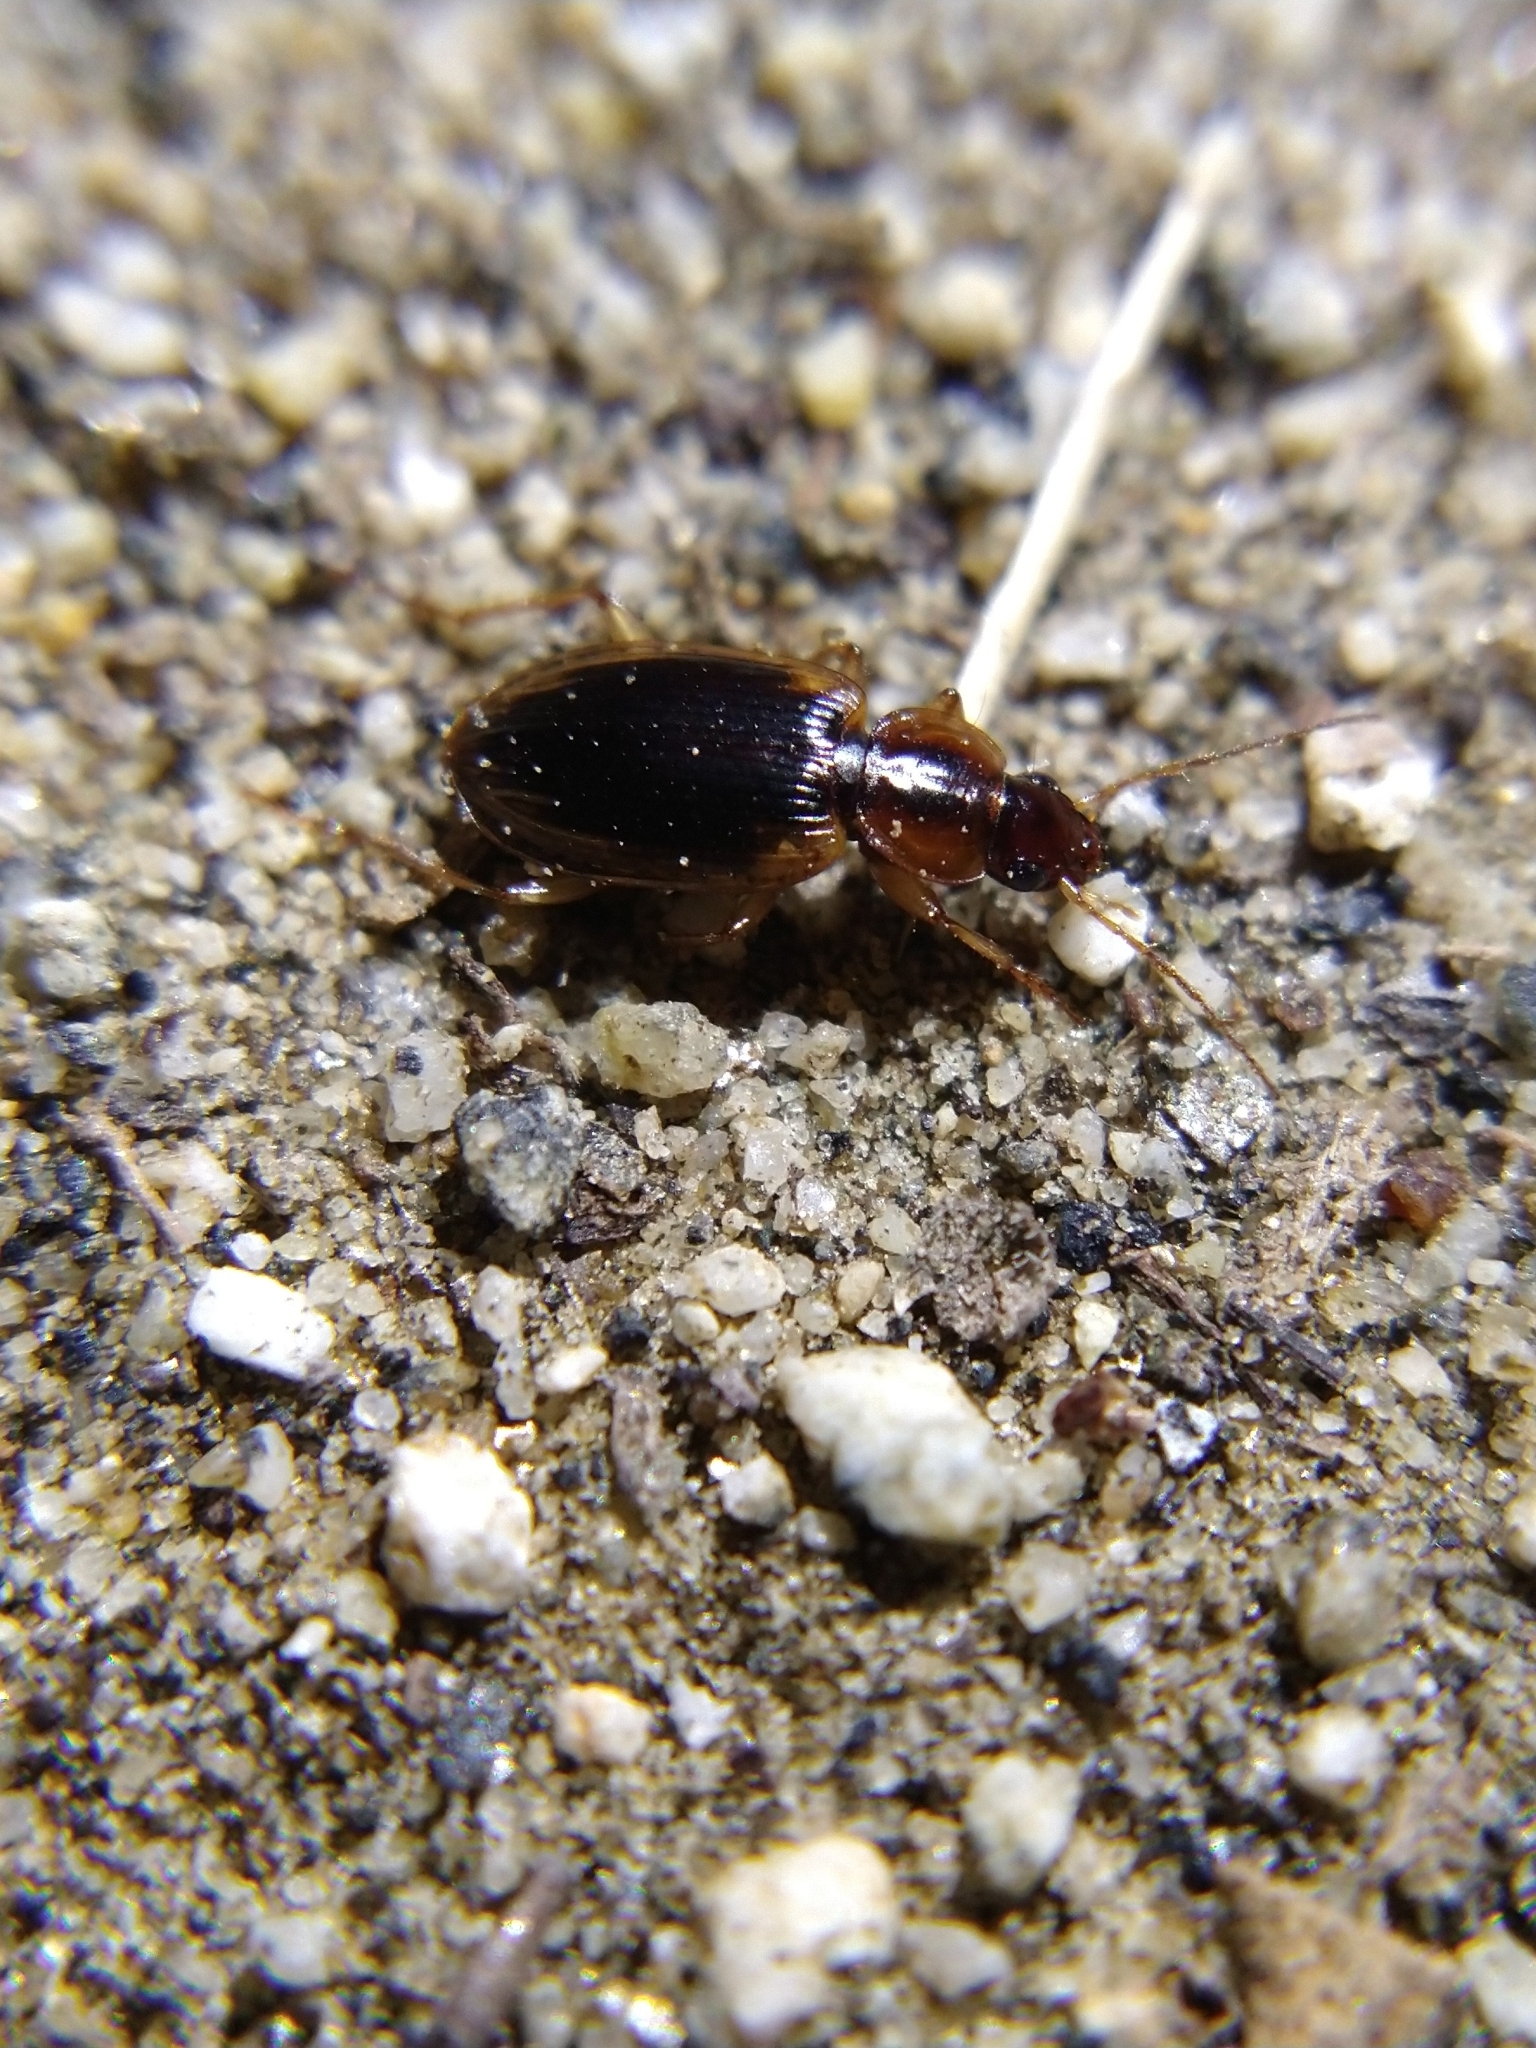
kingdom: Animalia
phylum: Arthropoda
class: Insecta
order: Coleoptera
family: Carabidae
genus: Tanystoma
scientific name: Tanystoma maculicolle
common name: Tule beetle
